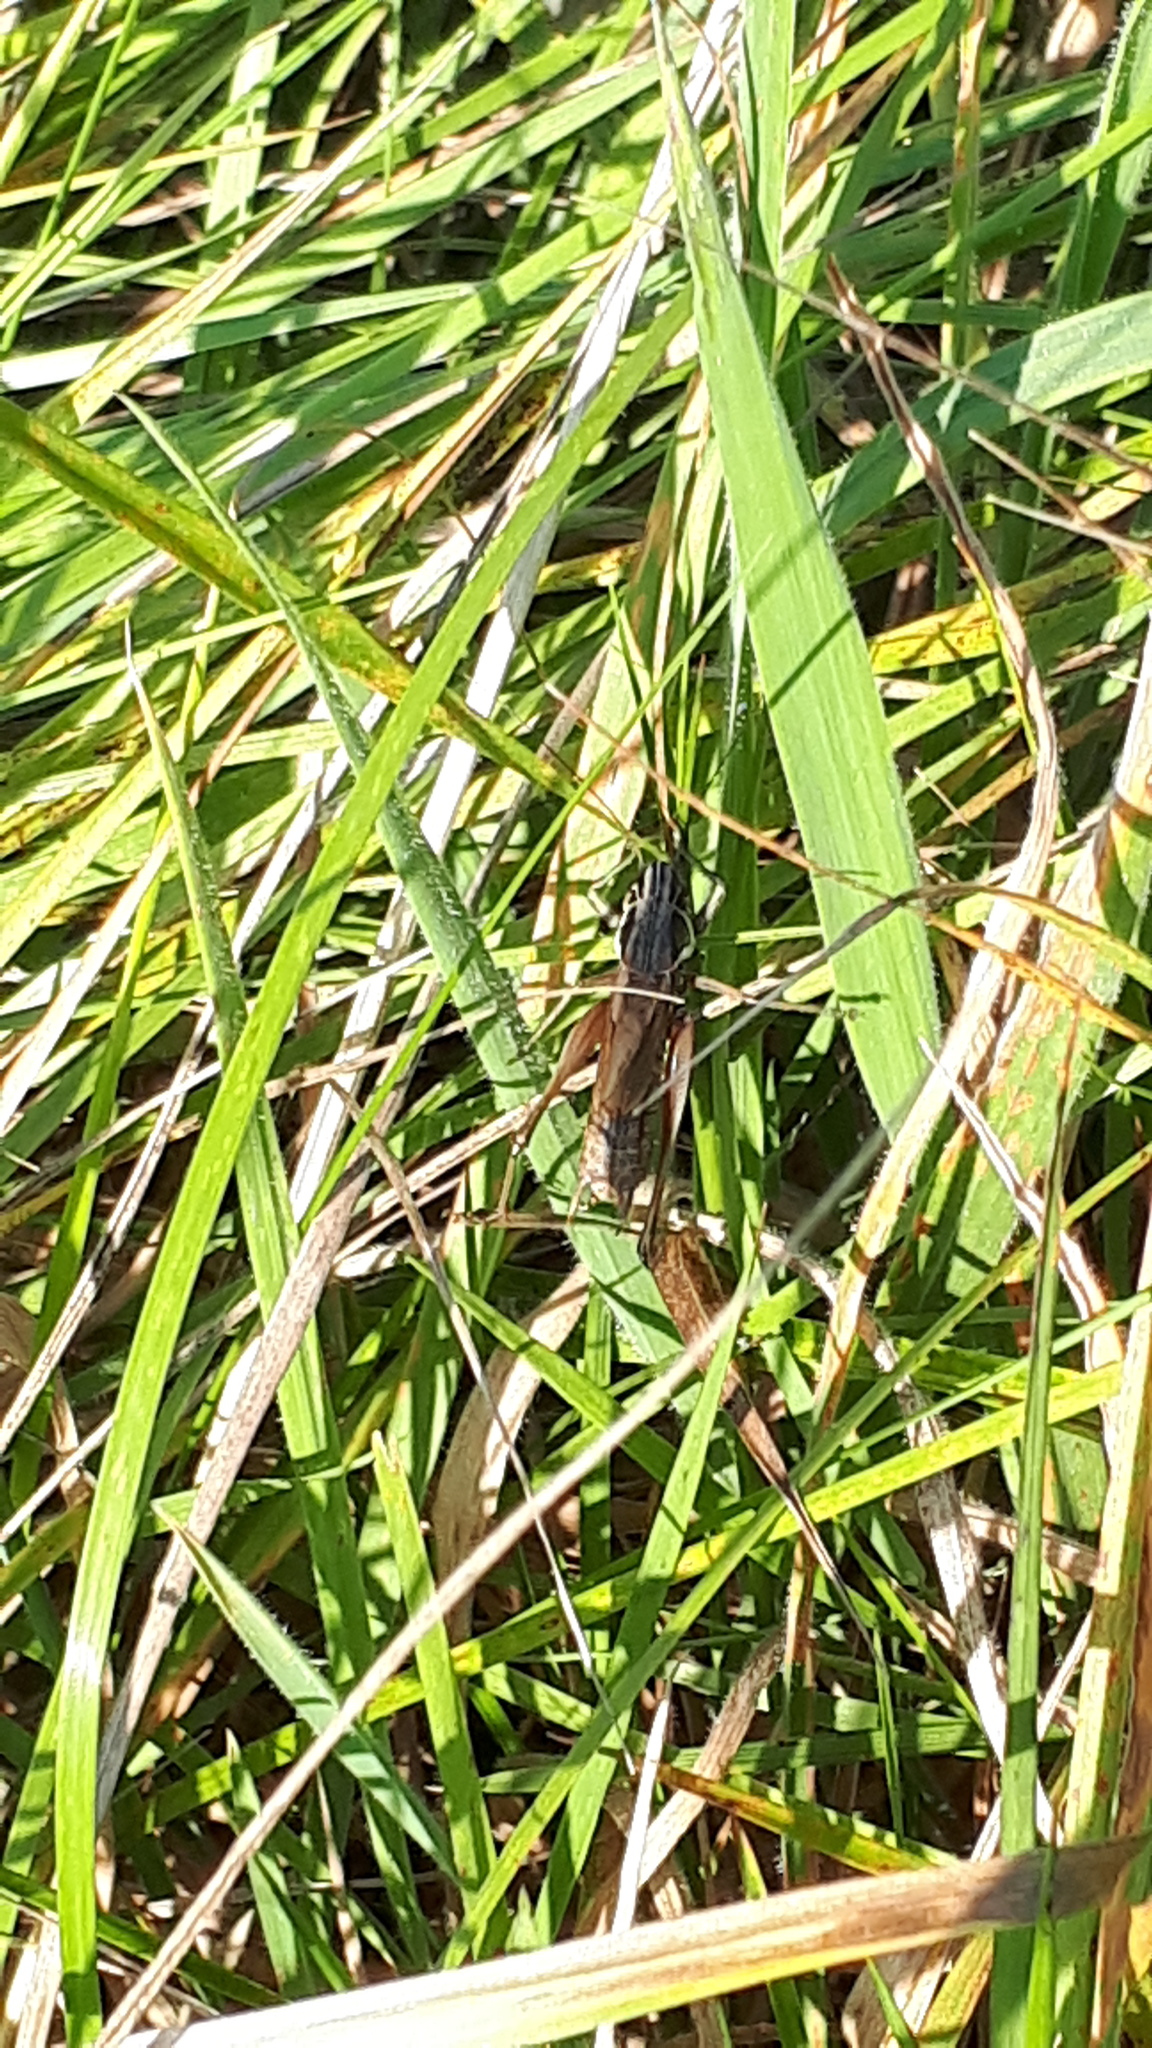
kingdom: Animalia
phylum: Arthropoda
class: Insecta
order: Orthoptera
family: Tettigoniidae
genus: Roeseliana
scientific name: Roeseliana roeselii
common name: Roesel's bush cricket
